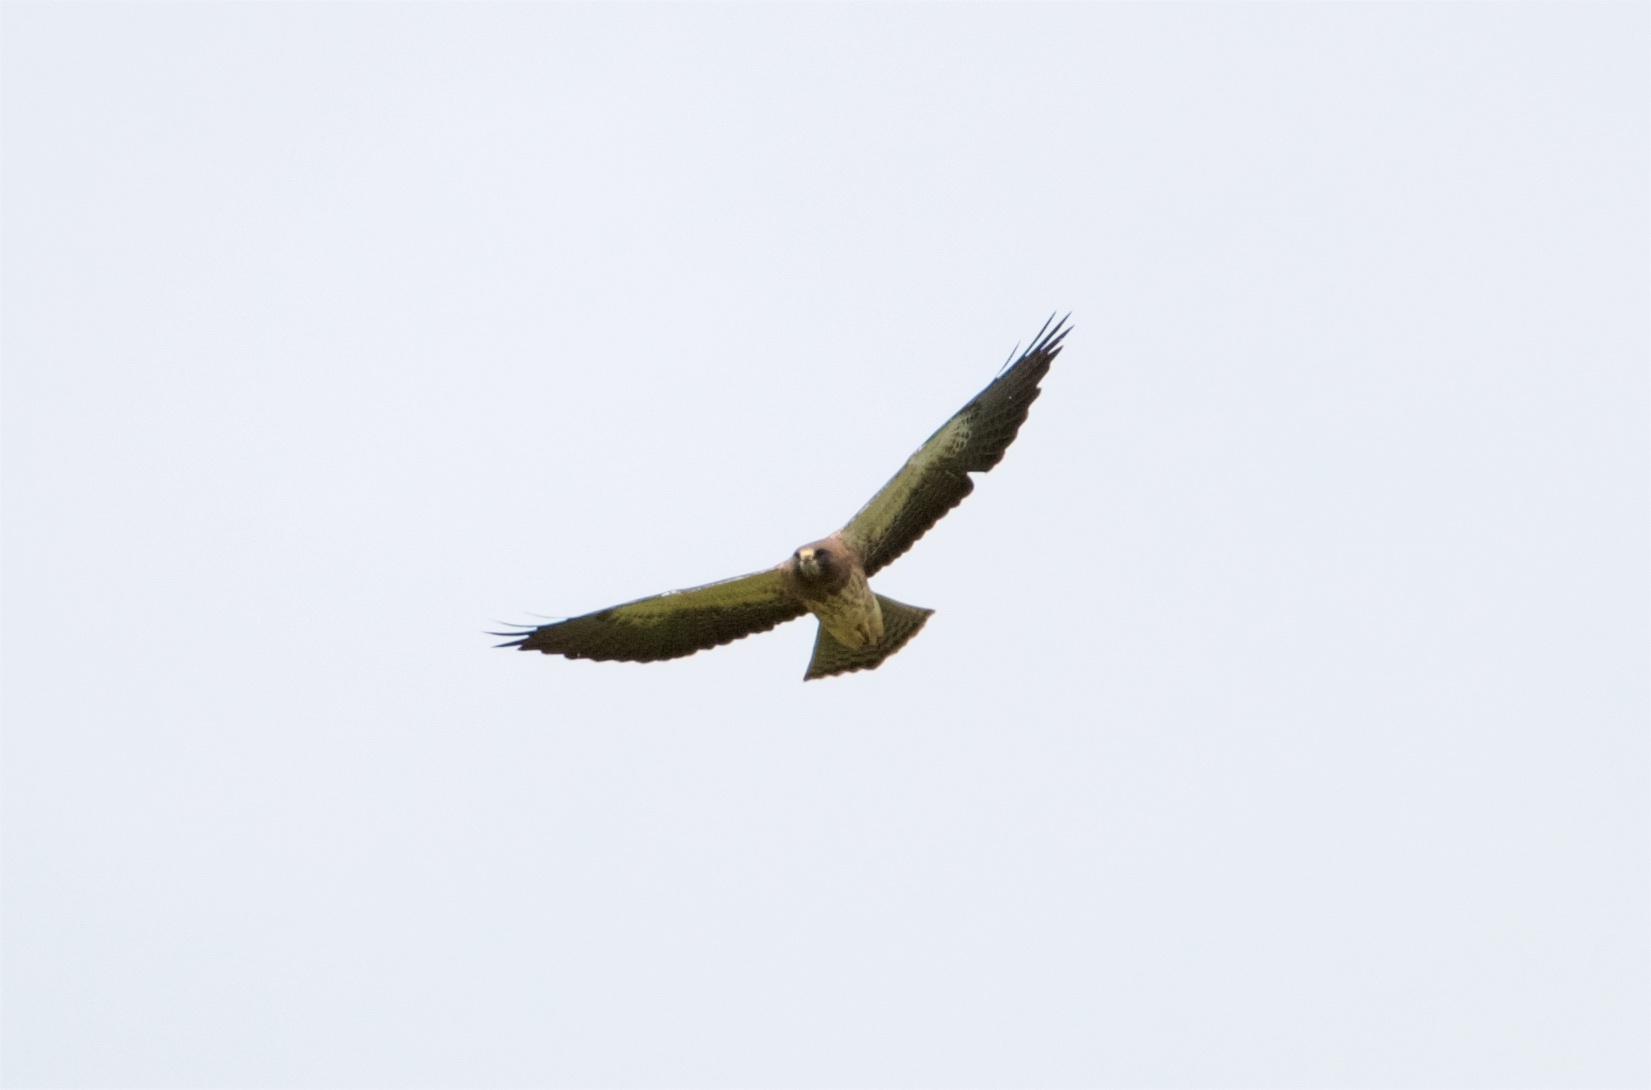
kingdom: Animalia
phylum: Chordata
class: Aves
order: Accipitriformes
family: Accipitridae
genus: Buteo
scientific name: Buteo swainsoni
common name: Swainson's hawk
